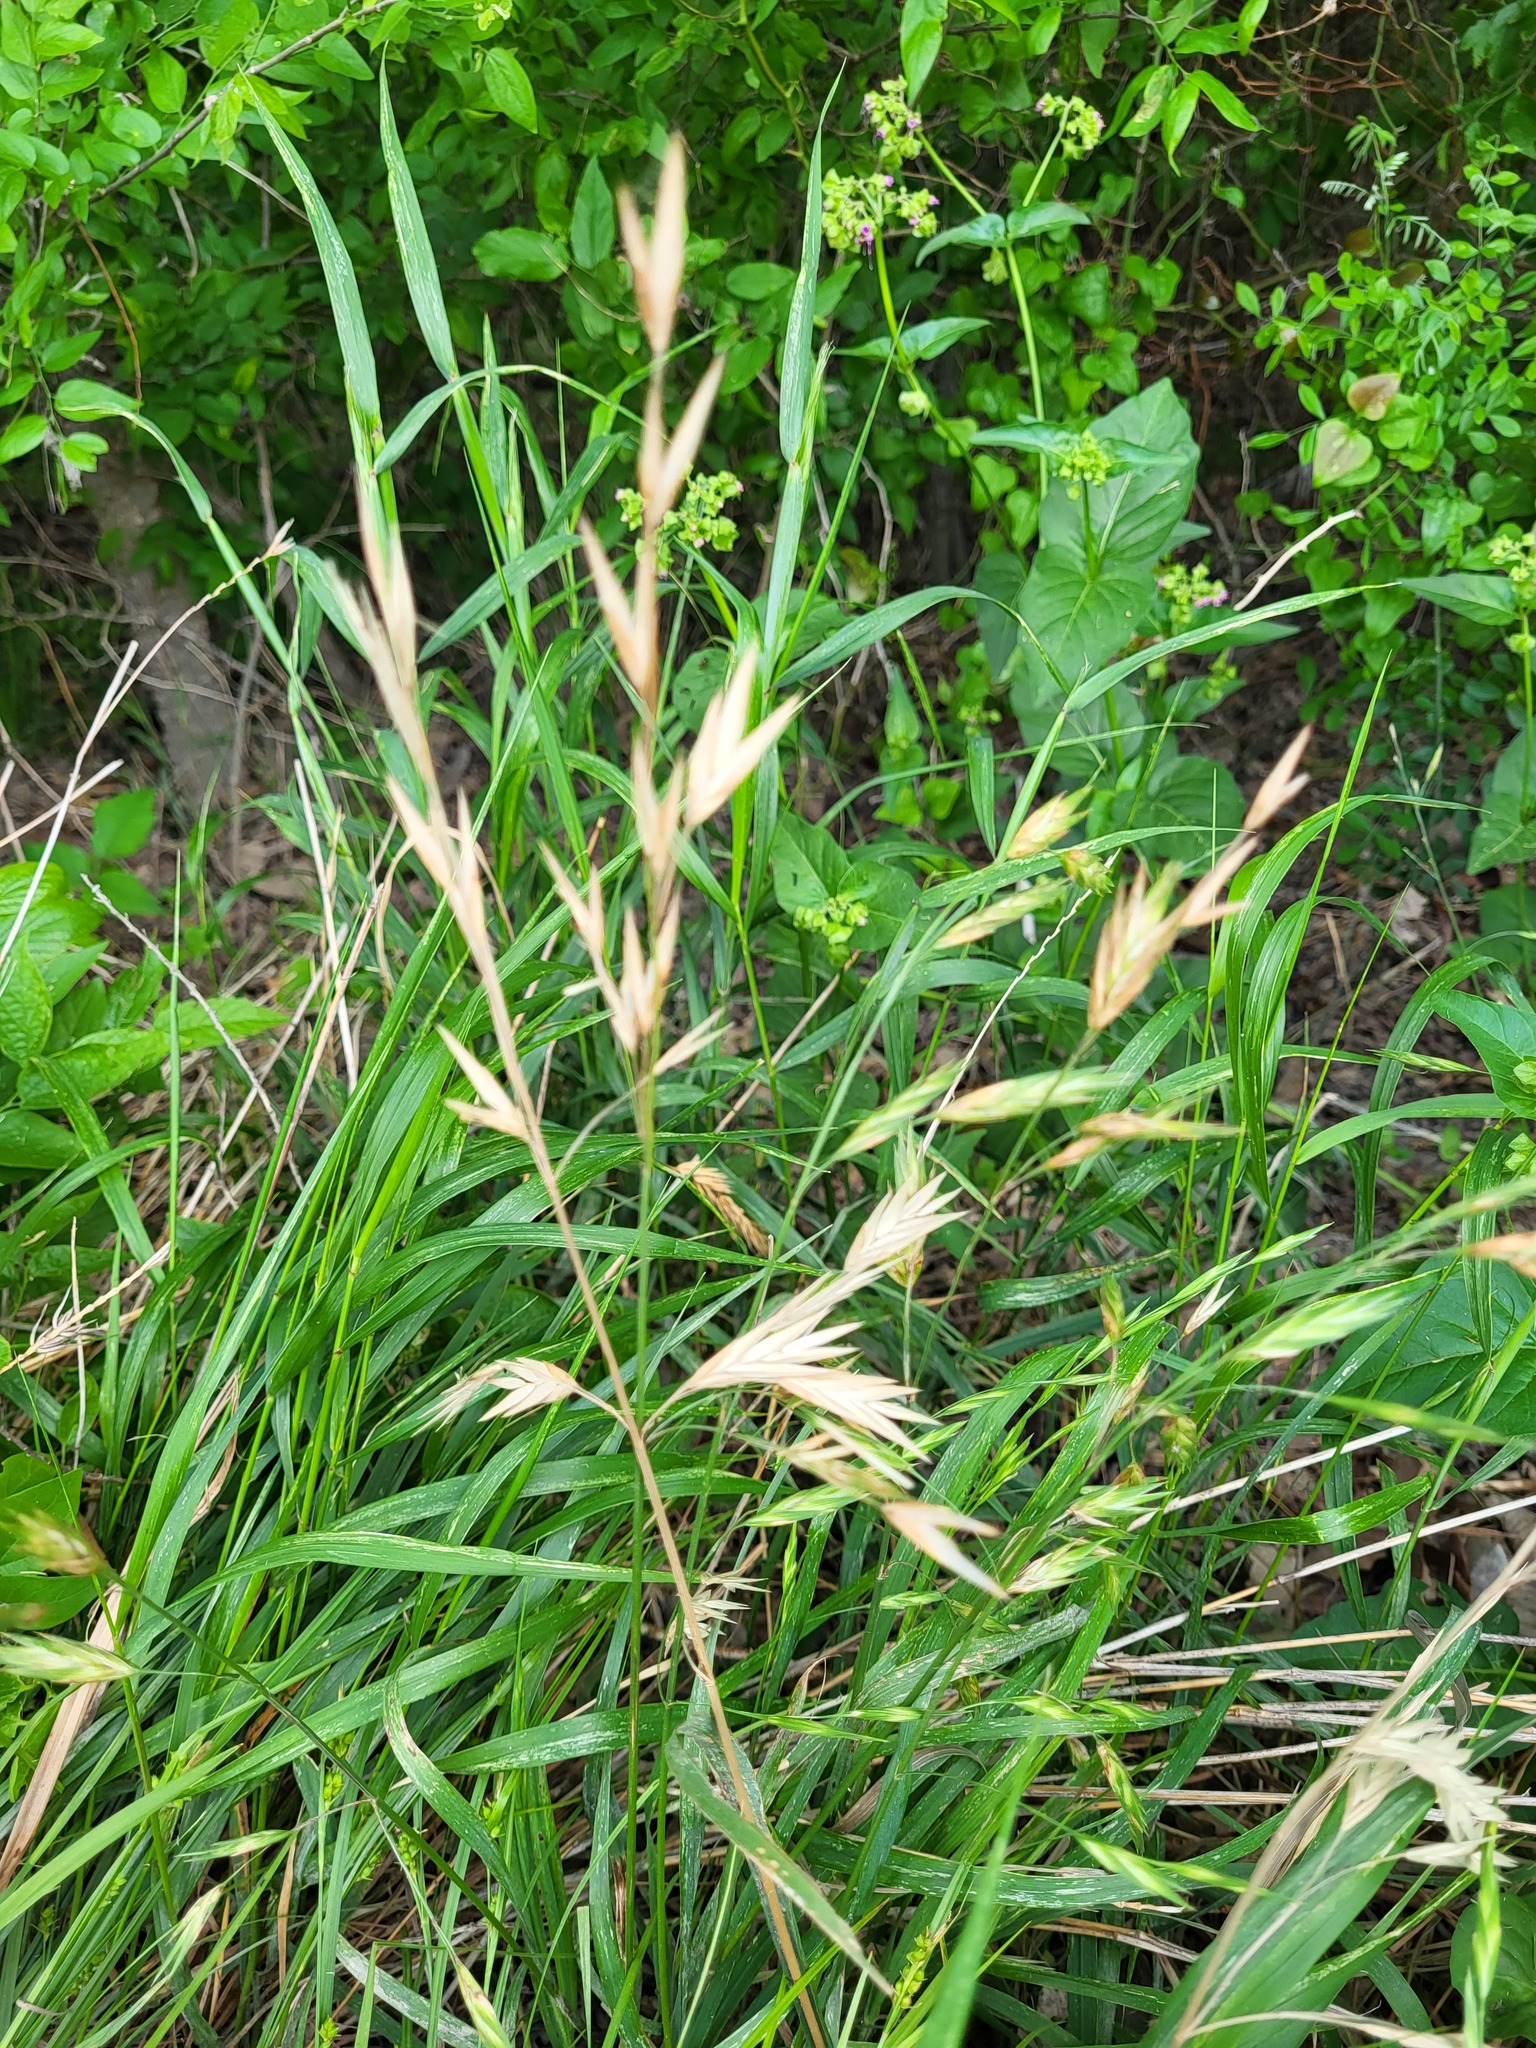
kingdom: Plantae
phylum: Tracheophyta
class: Liliopsida
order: Poales
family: Poaceae
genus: Bromus
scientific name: Bromus catharticus
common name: Rescuegrass
